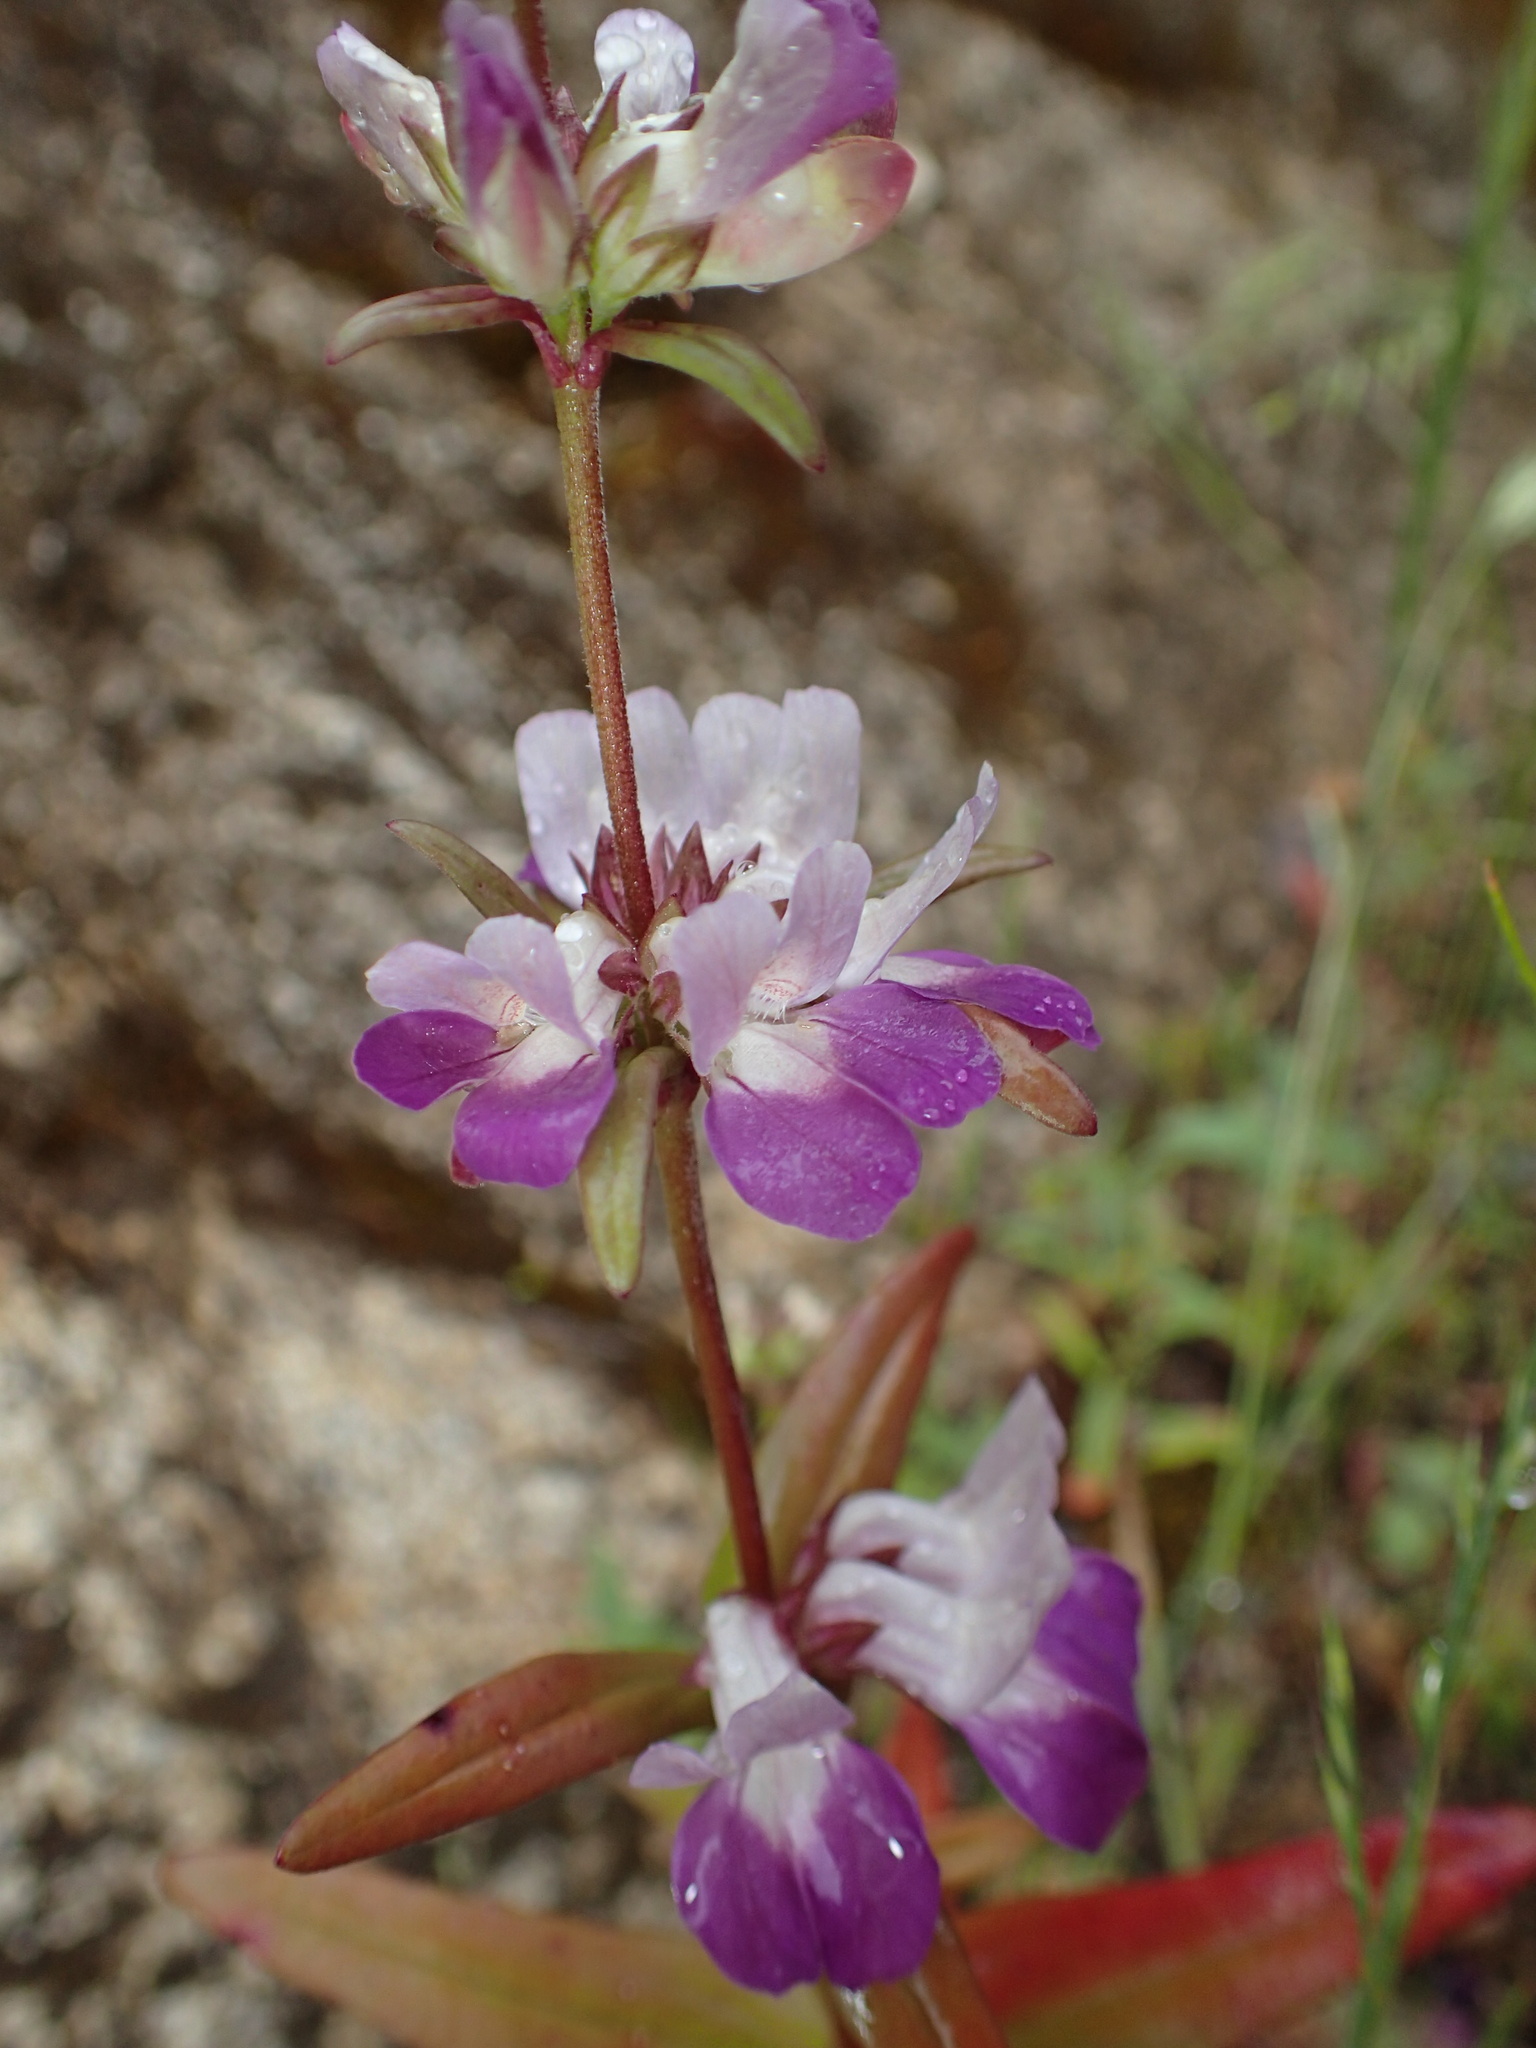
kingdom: Plantae
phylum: Tracheophyta
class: Magnoliopsida
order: Lamiales
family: Plantaginaceae
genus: Collinsia
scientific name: Collinsia heterophylla
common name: Chinese-houses
